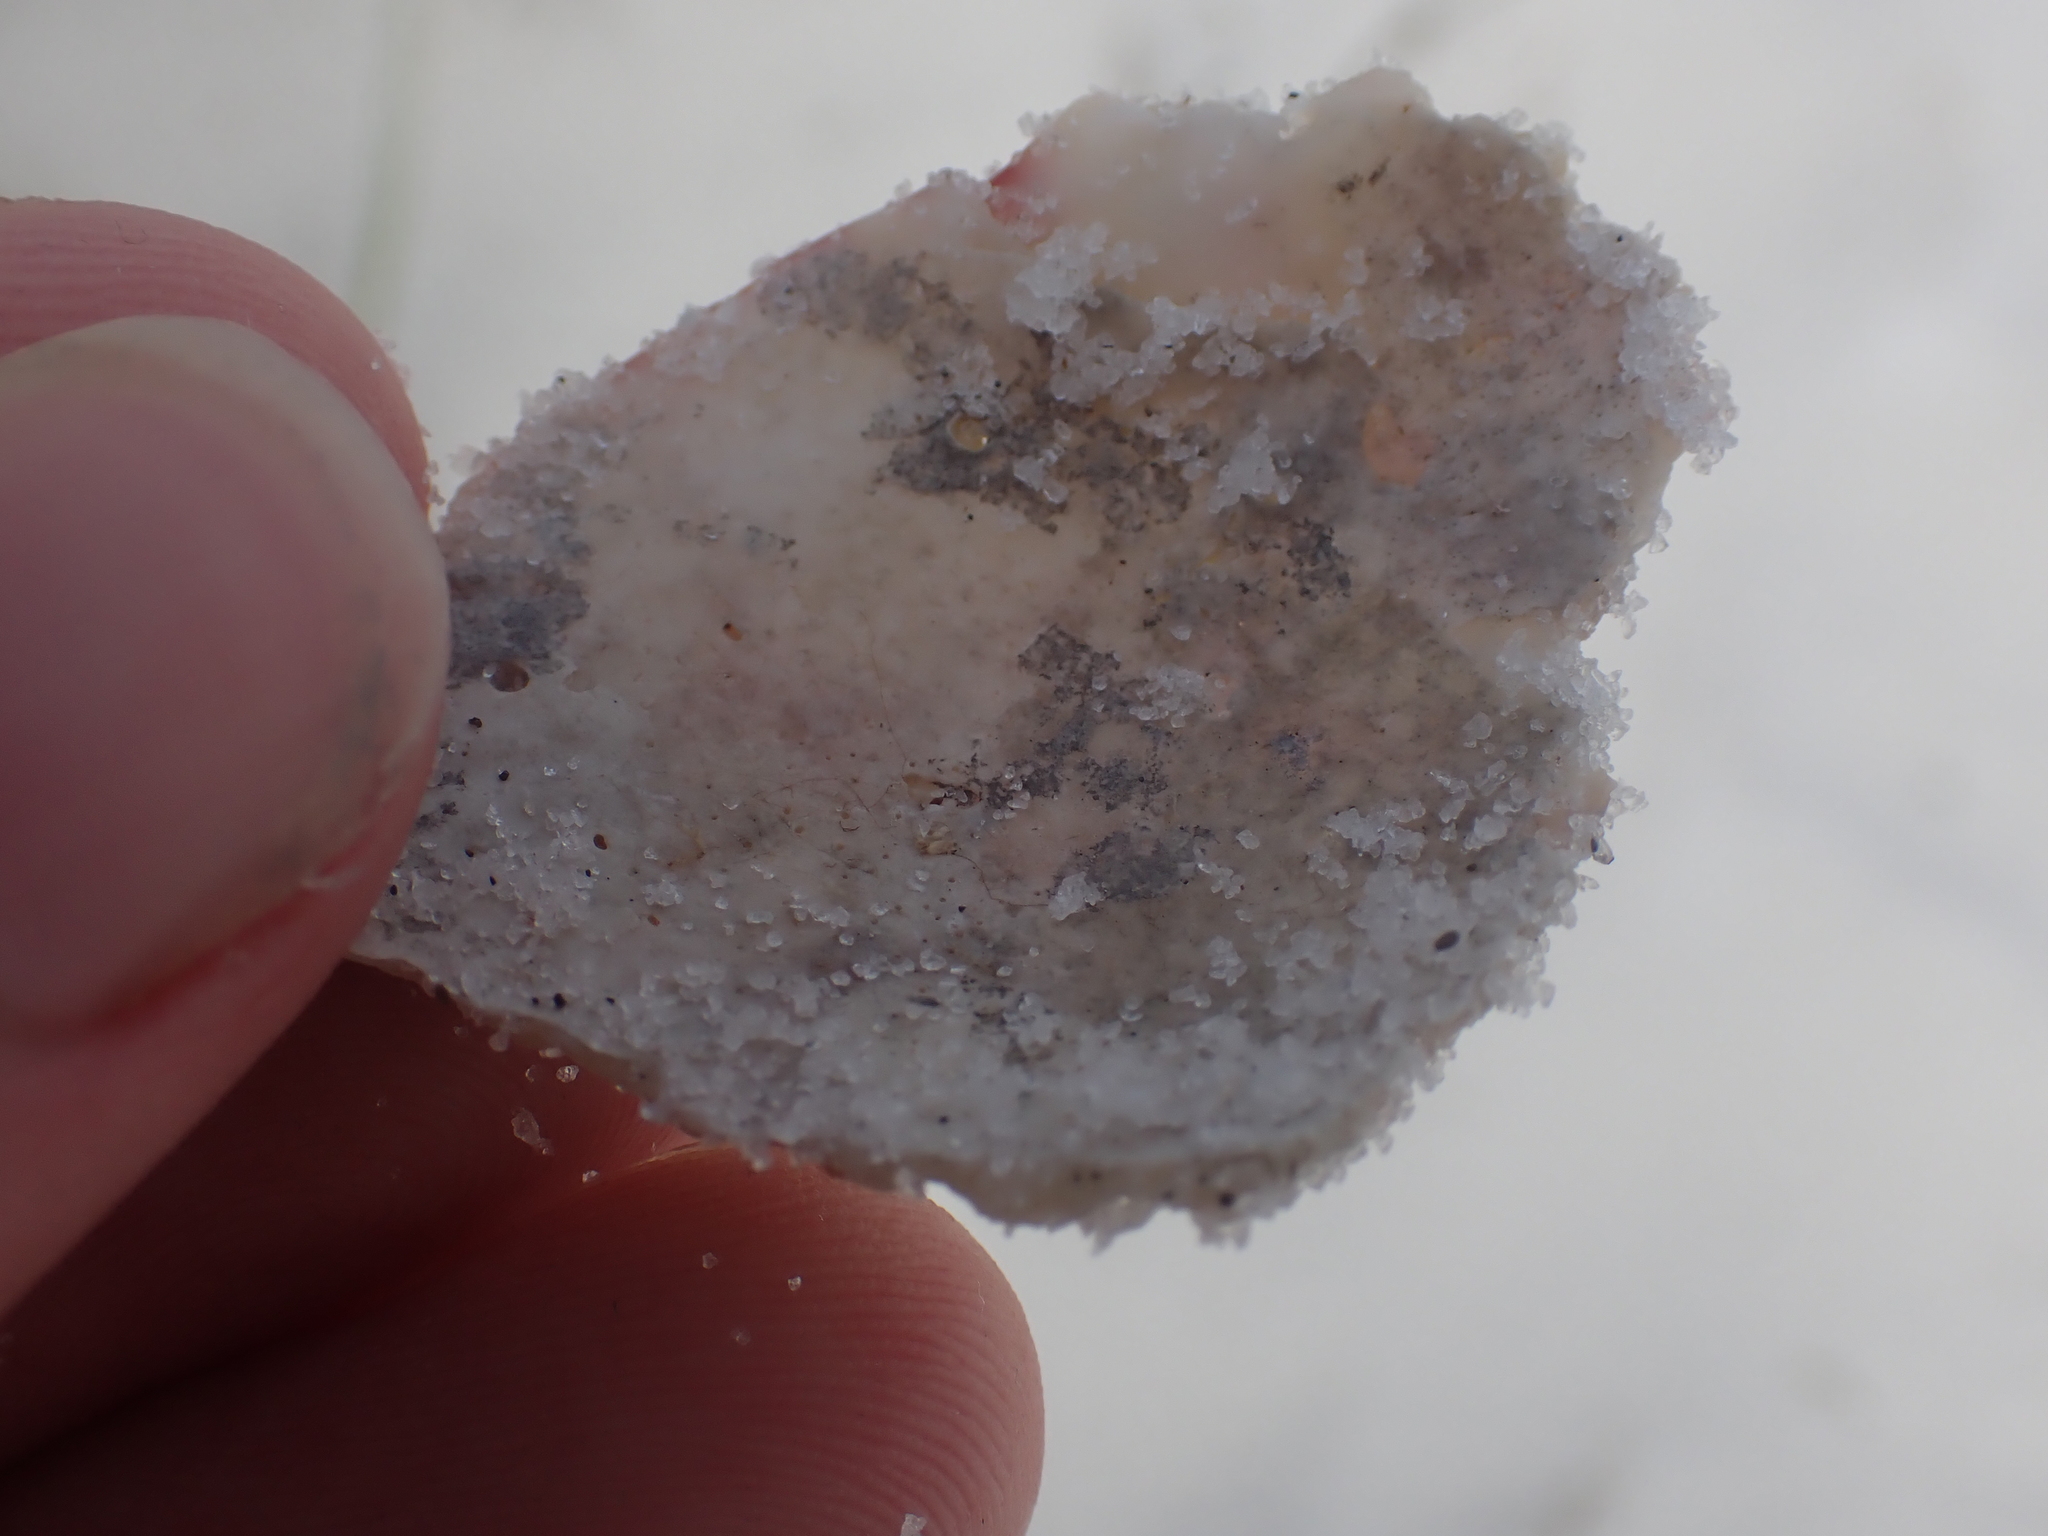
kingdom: Animalia
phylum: Mollusca
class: Bivalvia
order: Pectinida
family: Pectinidae
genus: Argopecten
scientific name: Argopecten gibbus
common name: Atlantic calico scallop
